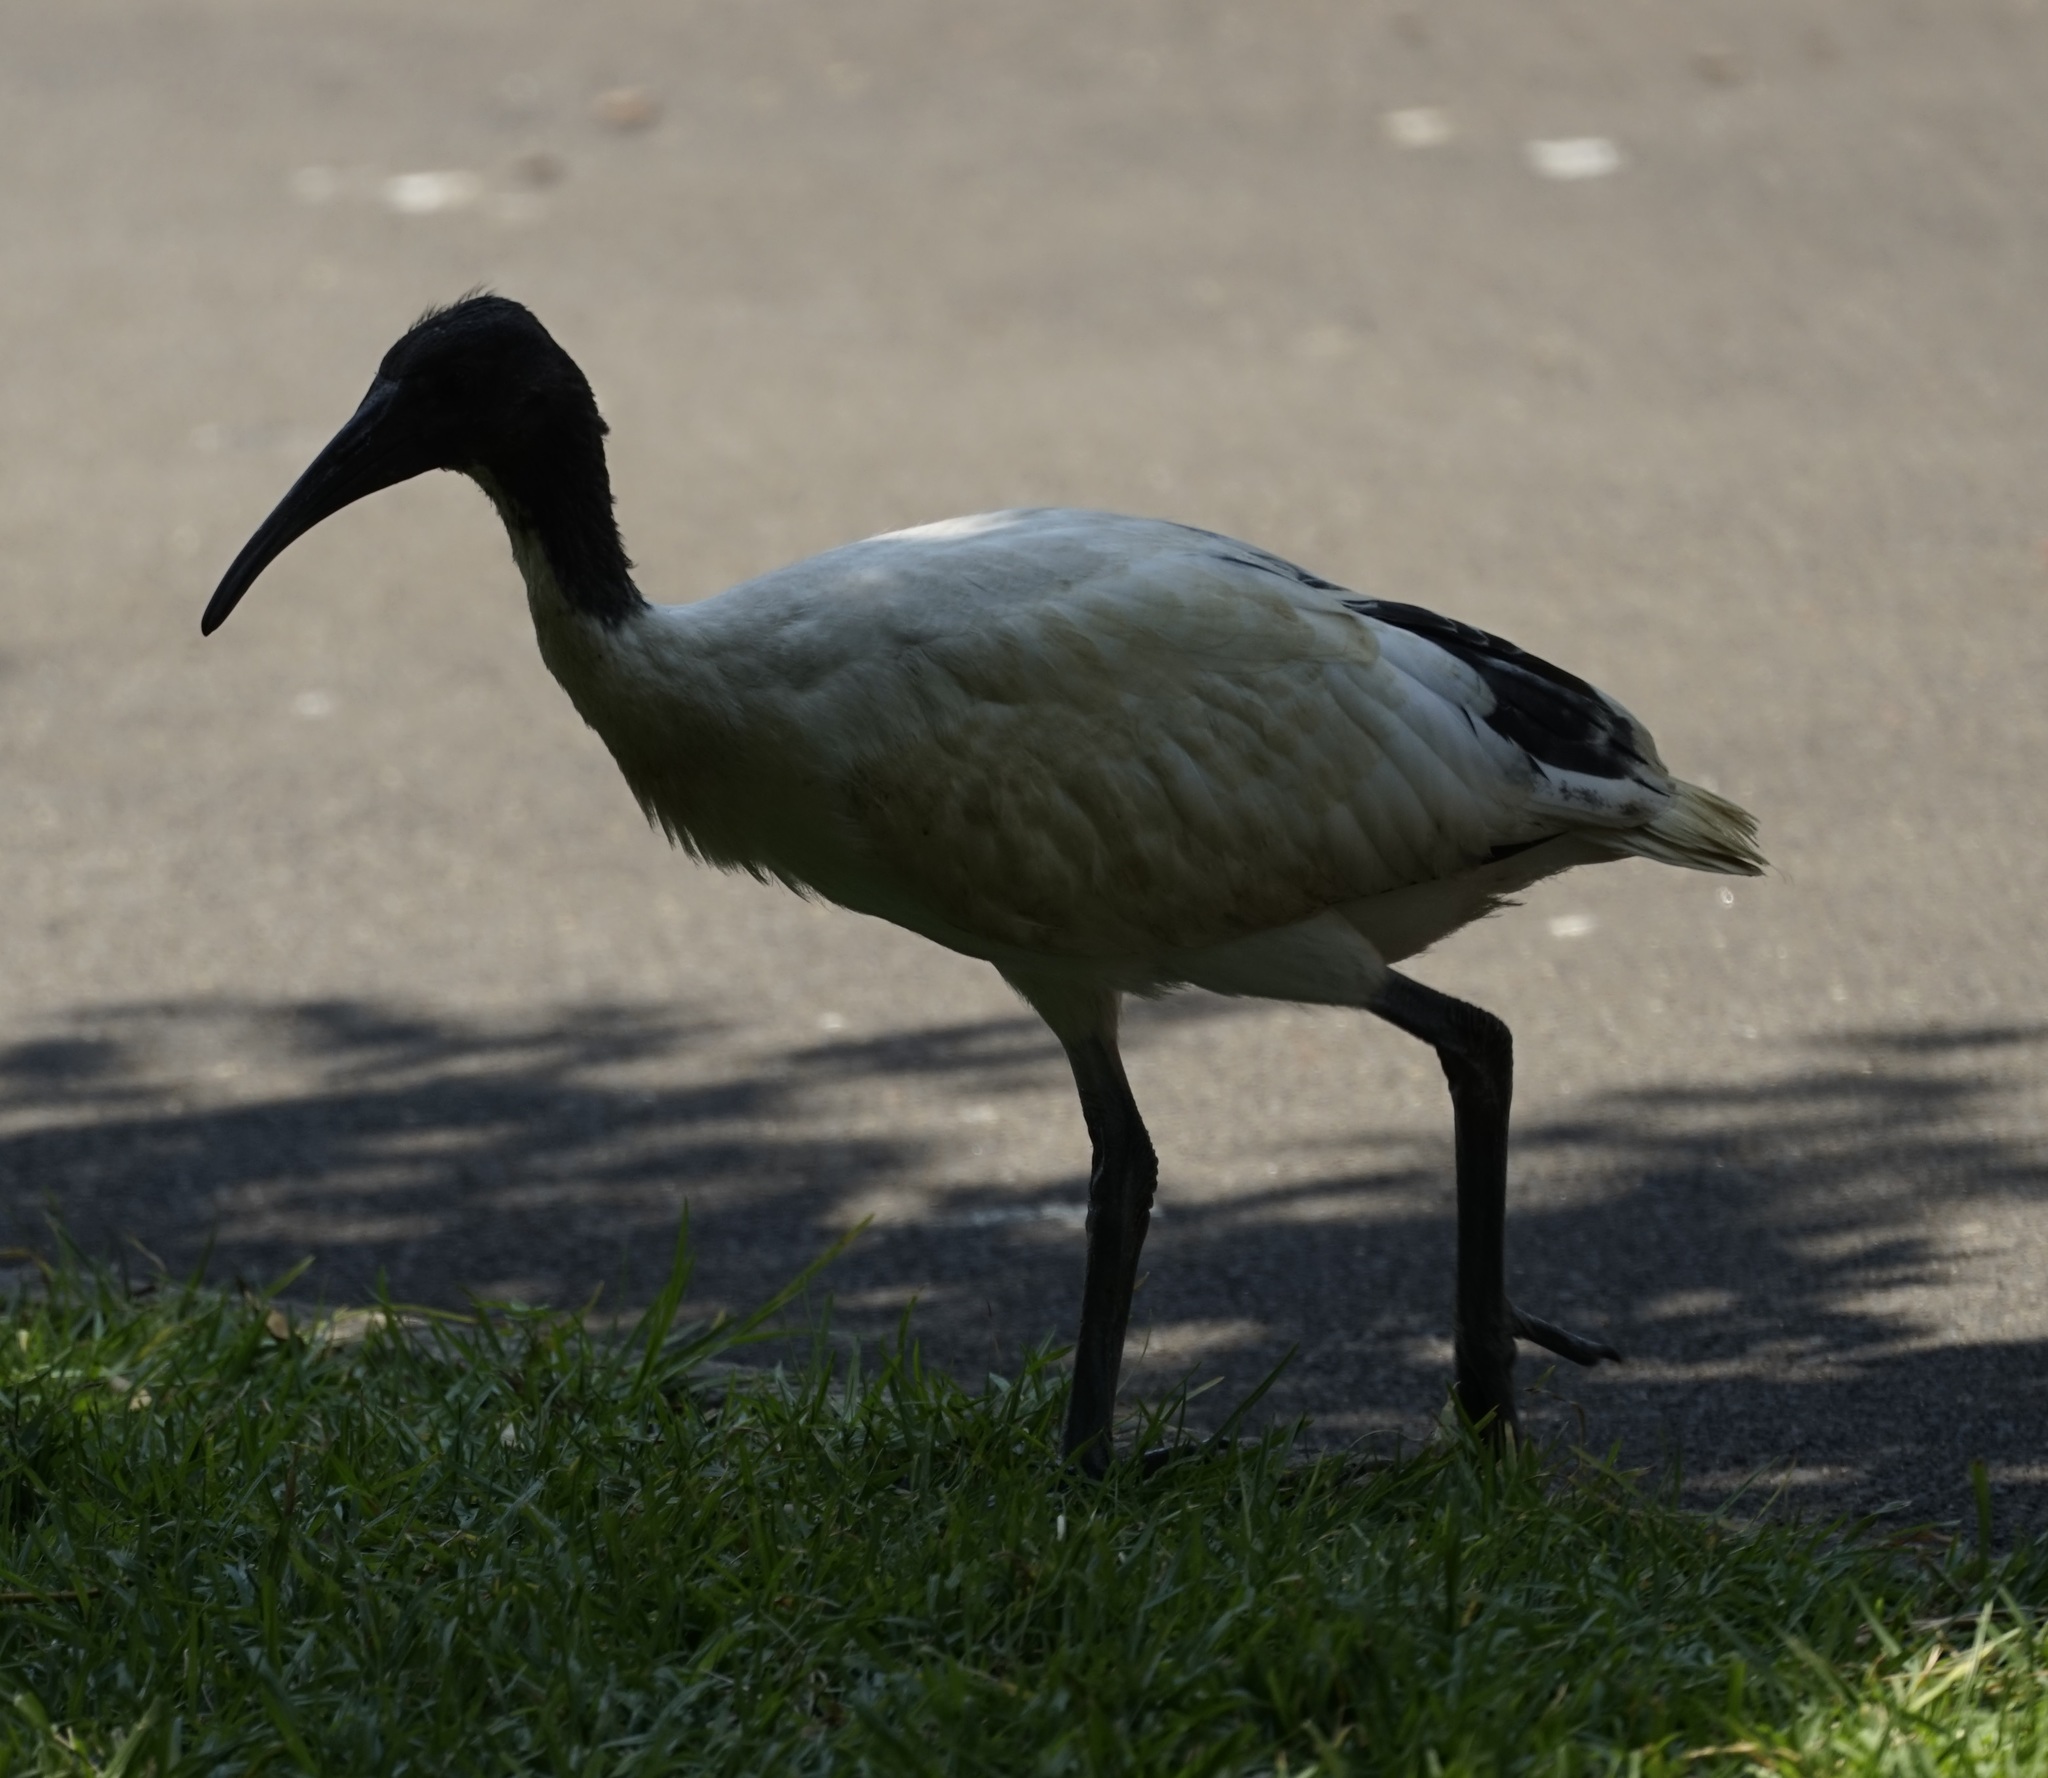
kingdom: Animalia
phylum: Chordata
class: Aves
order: Pelecaniformes
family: Threskiornithidae
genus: Threskiornis
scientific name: Threskiornis molucca
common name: Australian white ibis
